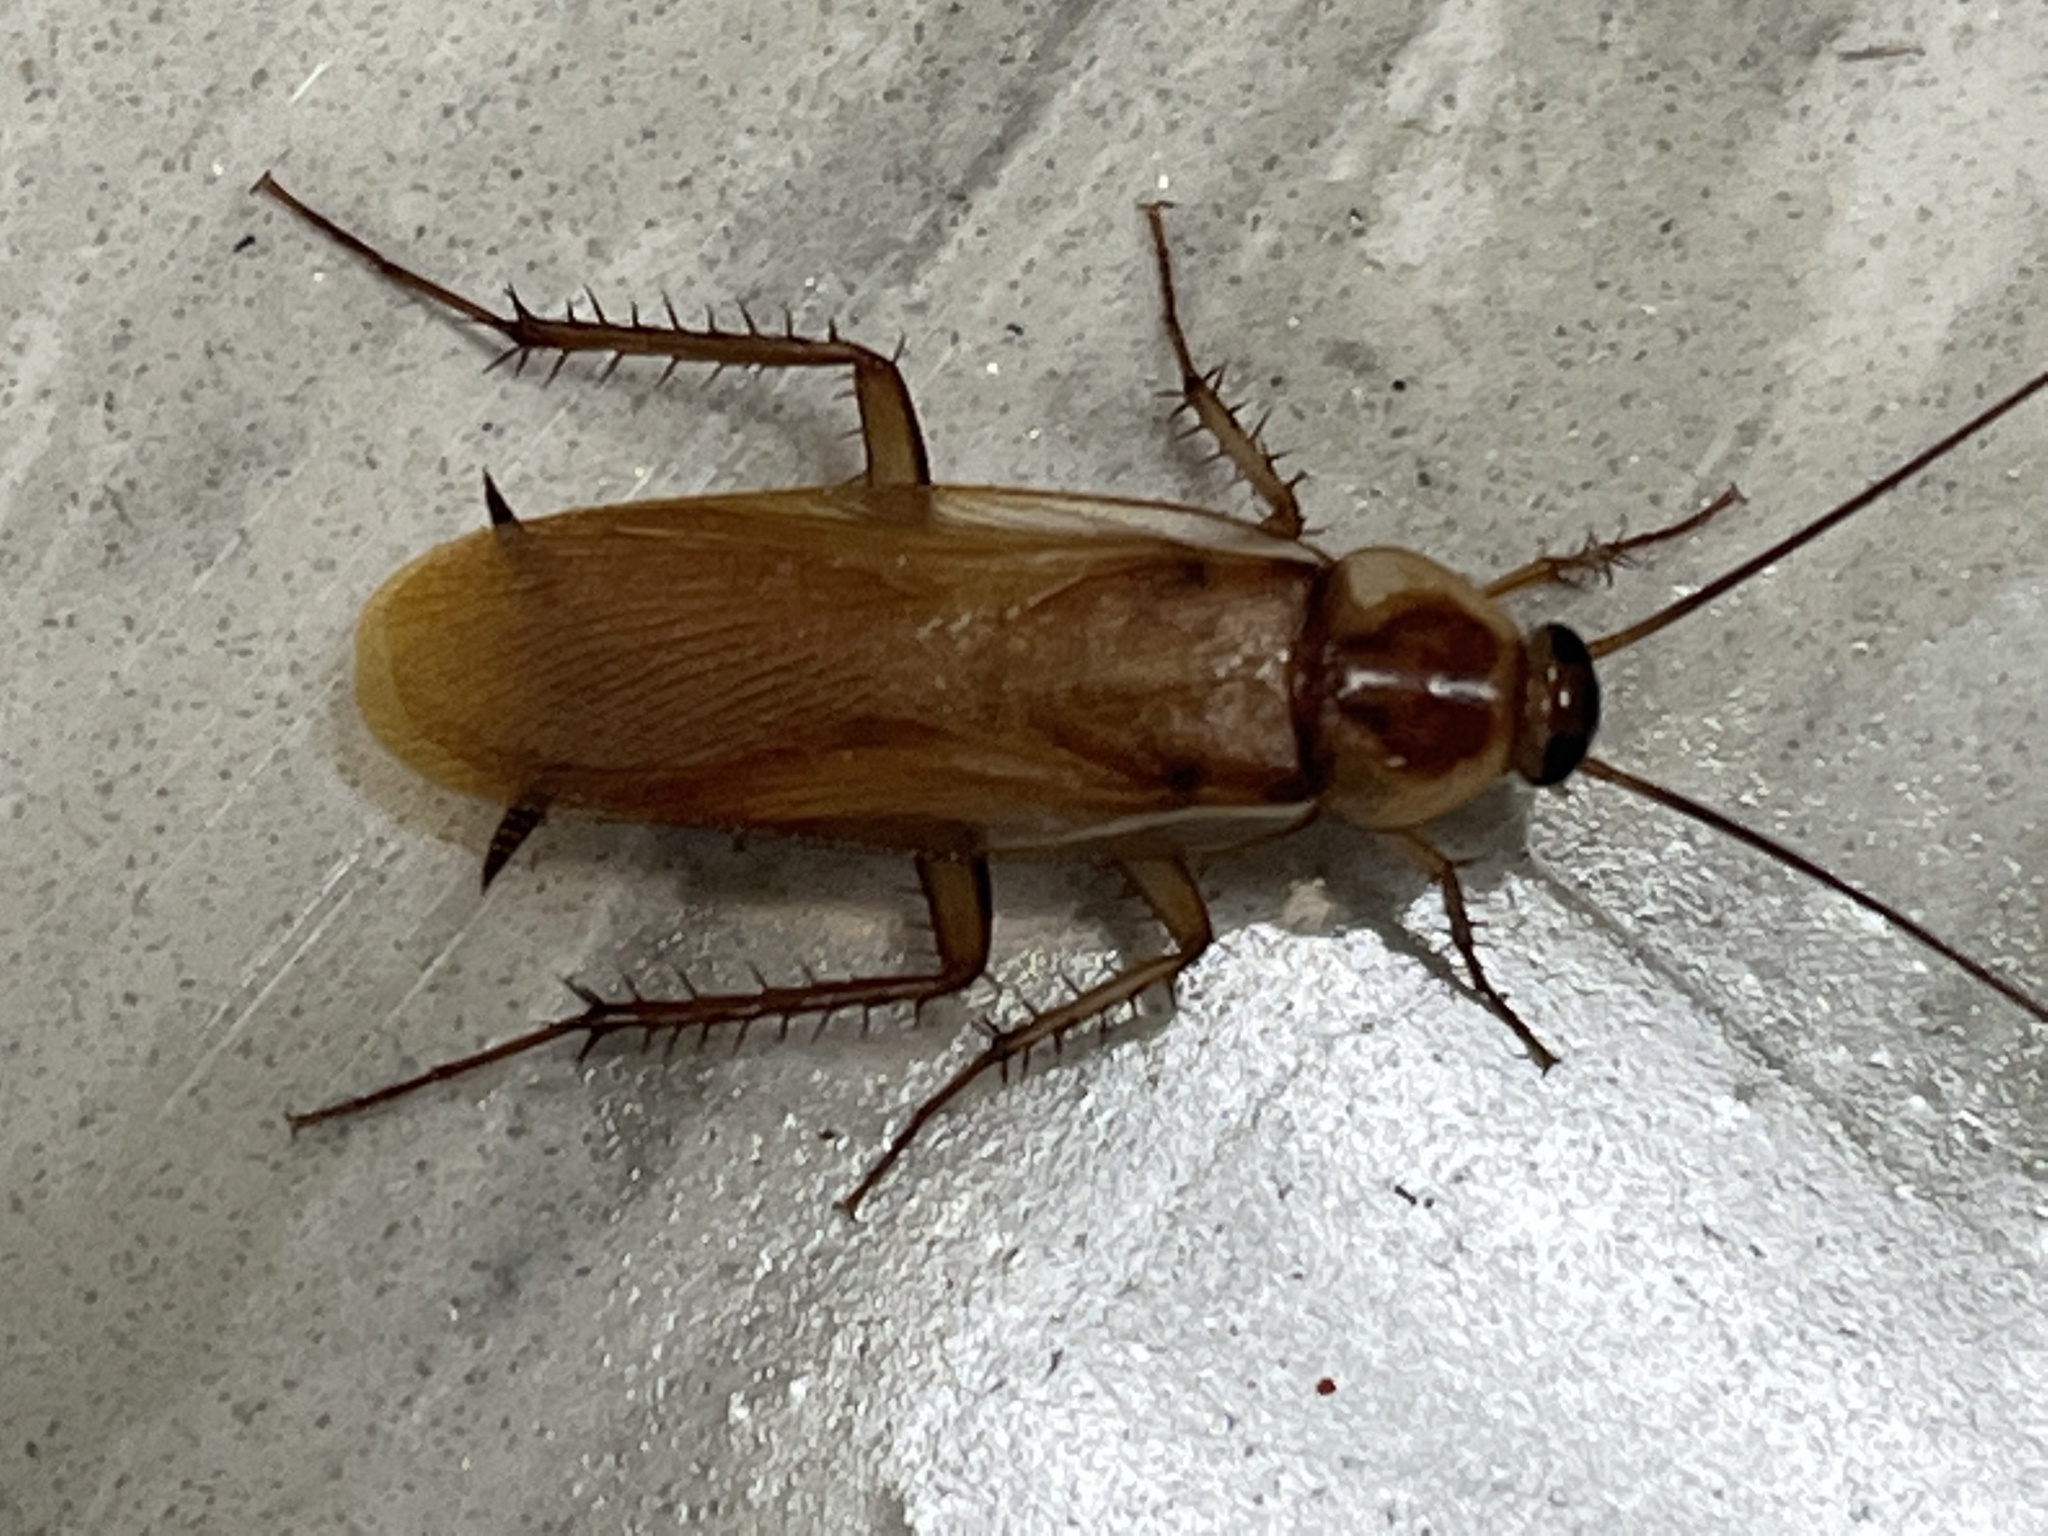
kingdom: Animalia
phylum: Arthropoda
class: Insecta
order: Blattodea
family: Blattidae
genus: Periplaneta
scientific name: Periplaneta lateralis
